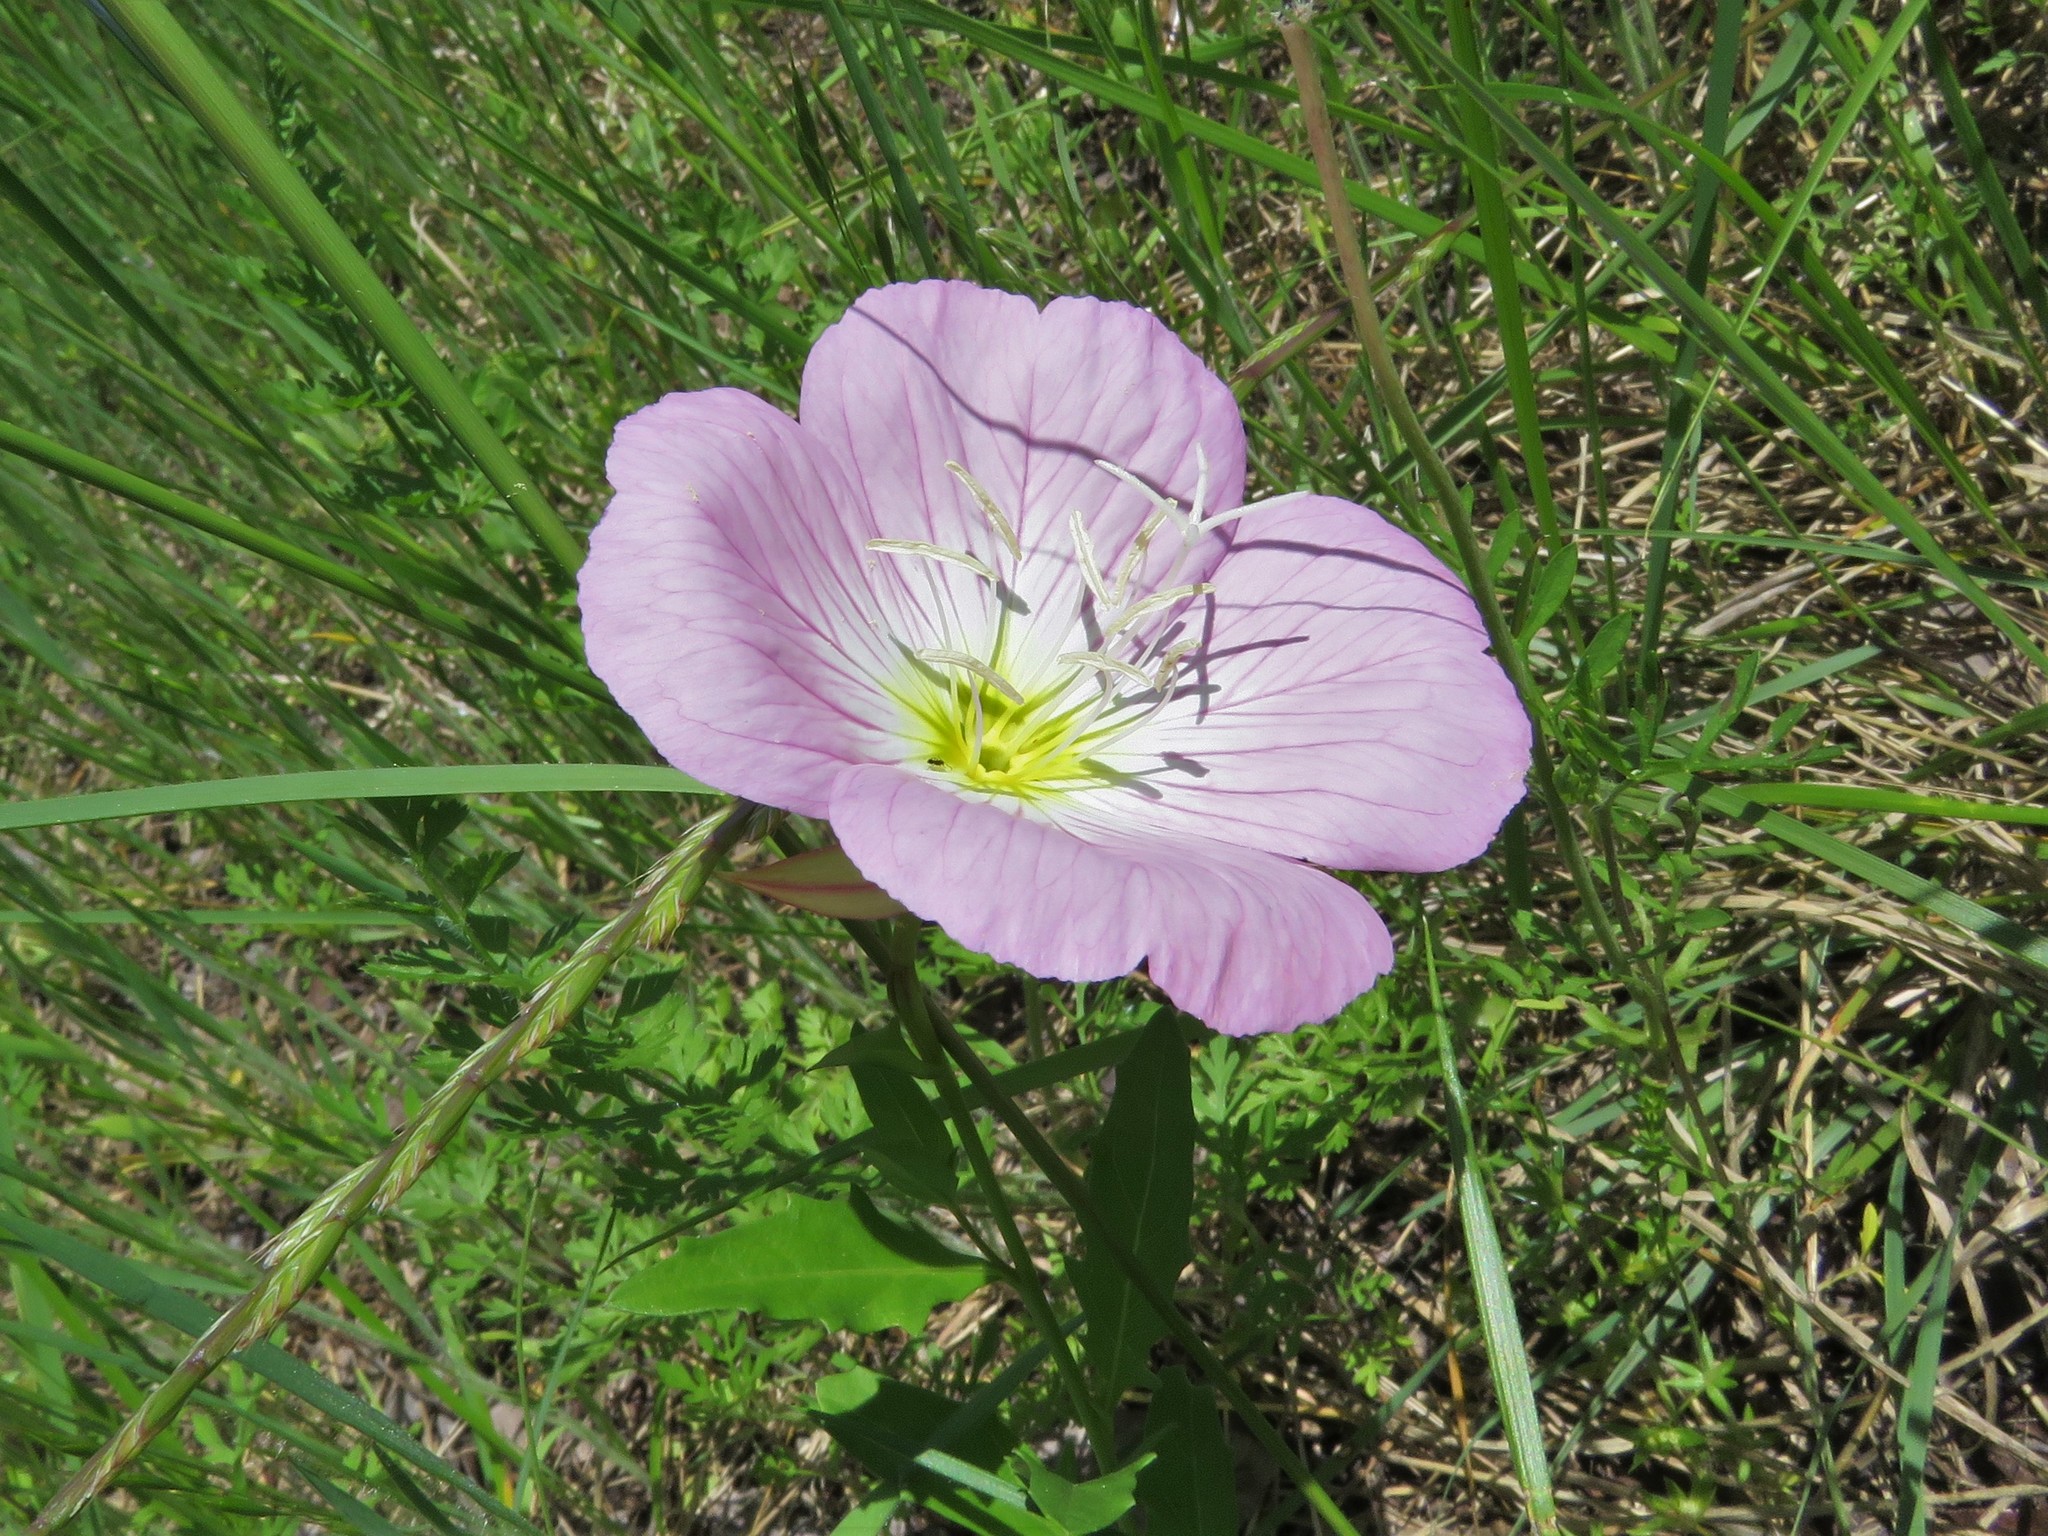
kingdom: Plantae
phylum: Tracheophyta
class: Magnoliopsida
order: Myrtales
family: Onagraceae
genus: Oenothera
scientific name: Oenothera speciosa
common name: White evening-primrose
